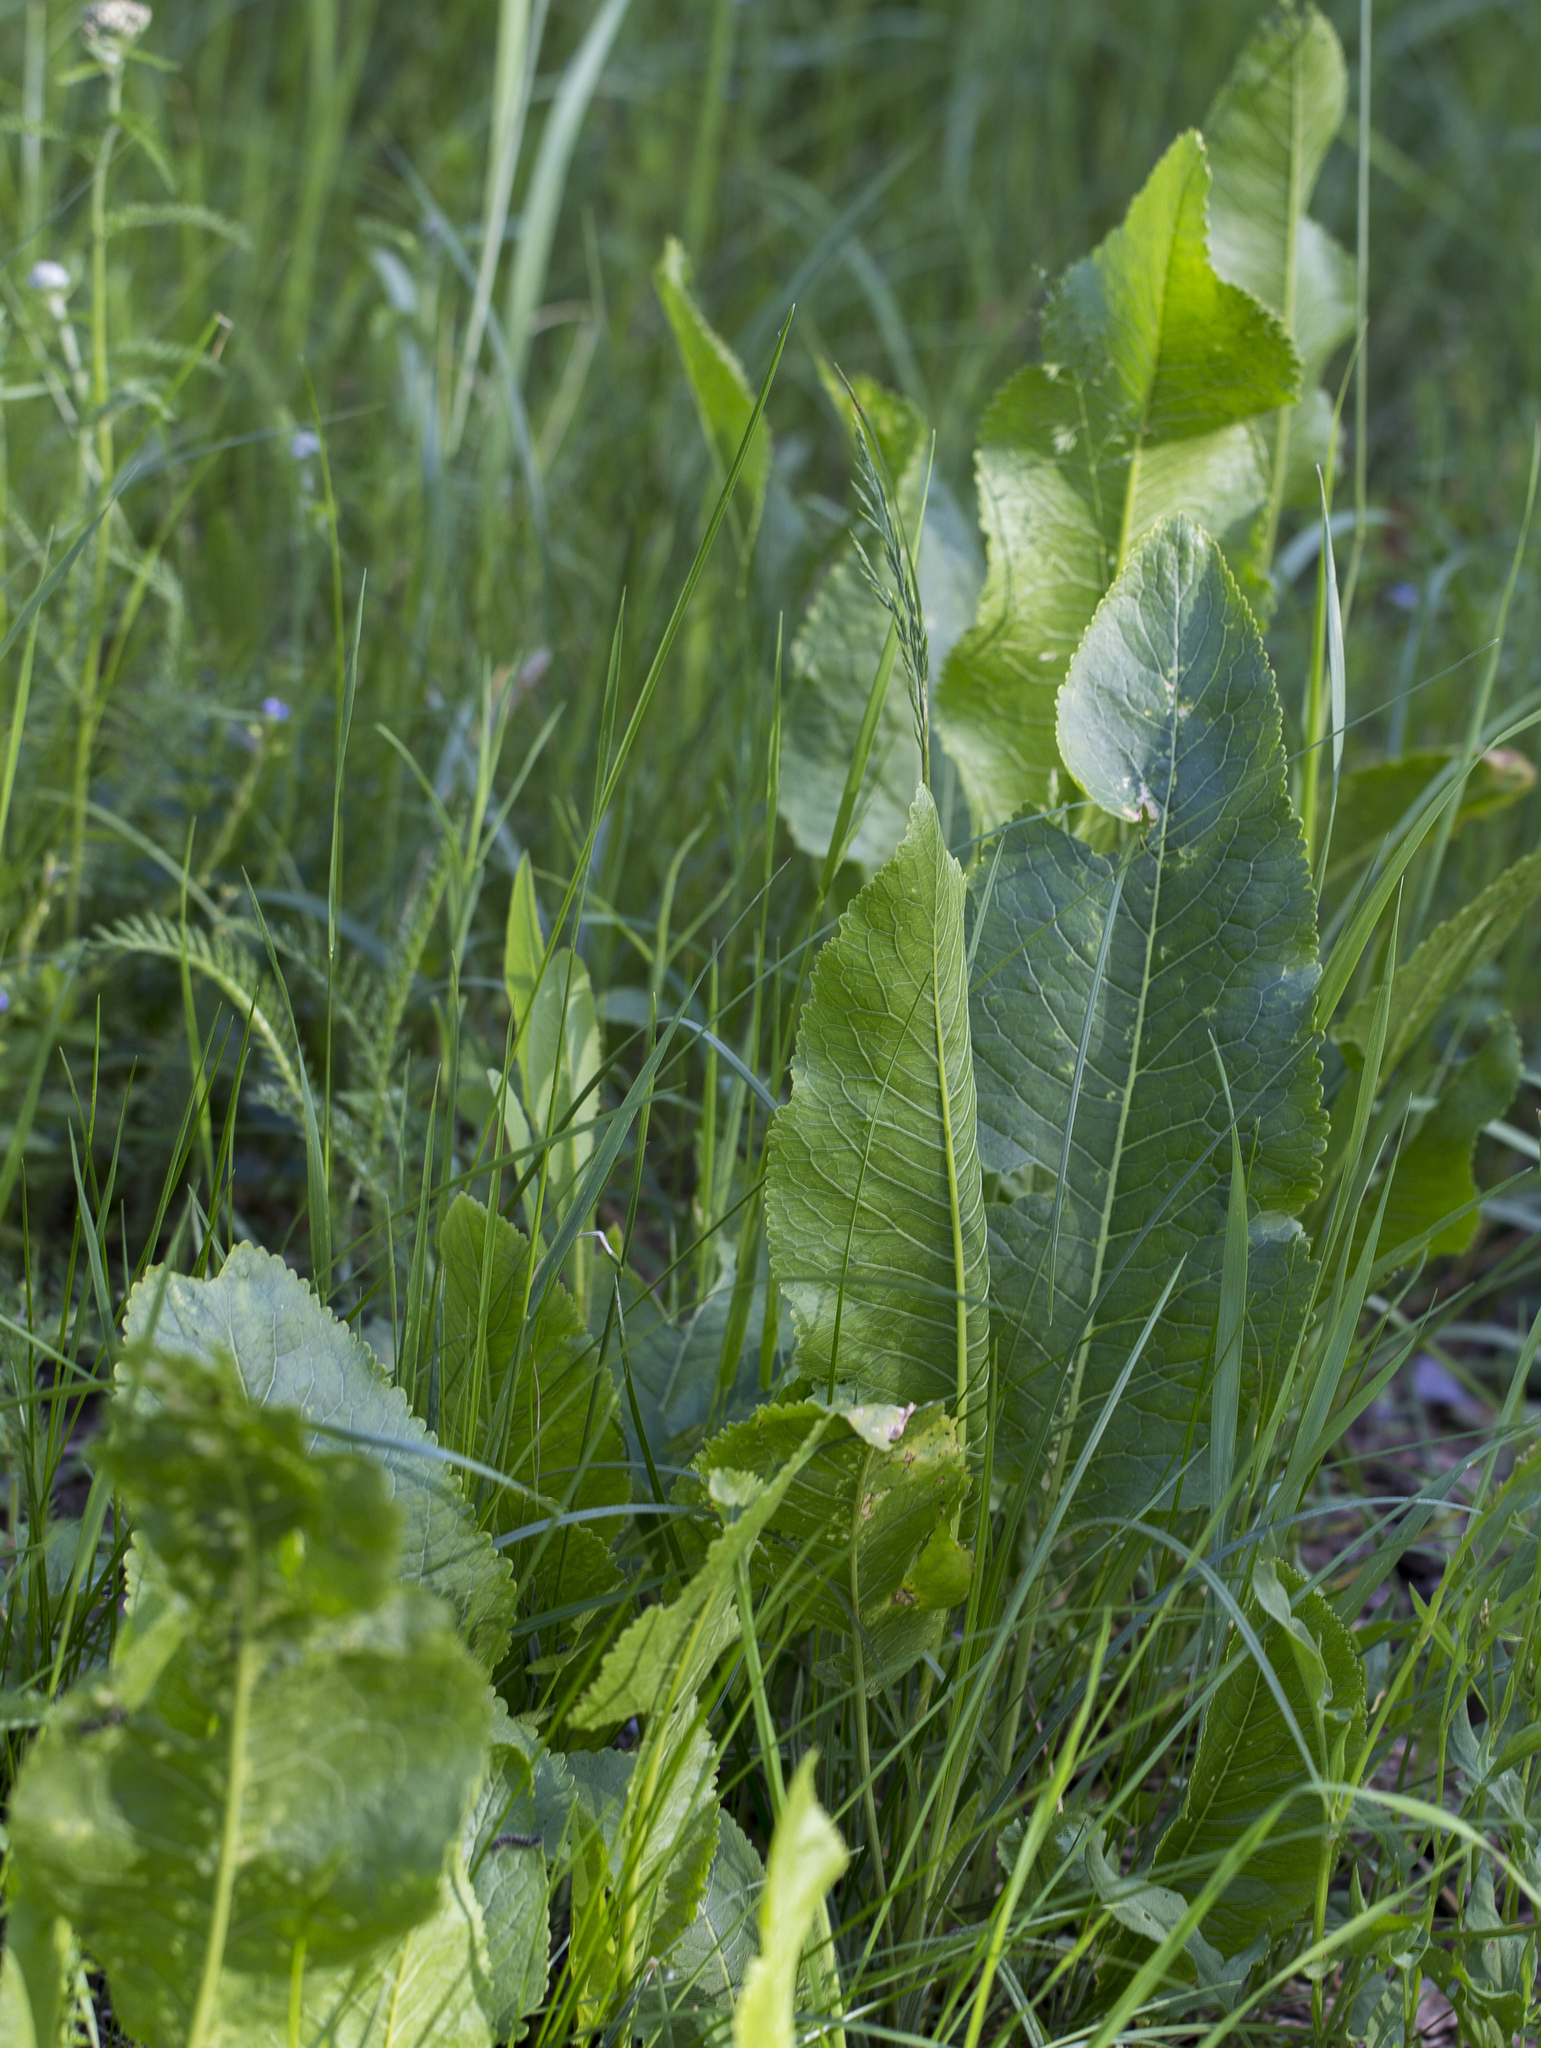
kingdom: Plantae
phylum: Tracheophyta
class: Magnoliopsida
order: Brassicales
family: Brassicaceae
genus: Armoracia
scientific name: Armoracia rusticana
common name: Horseradish
